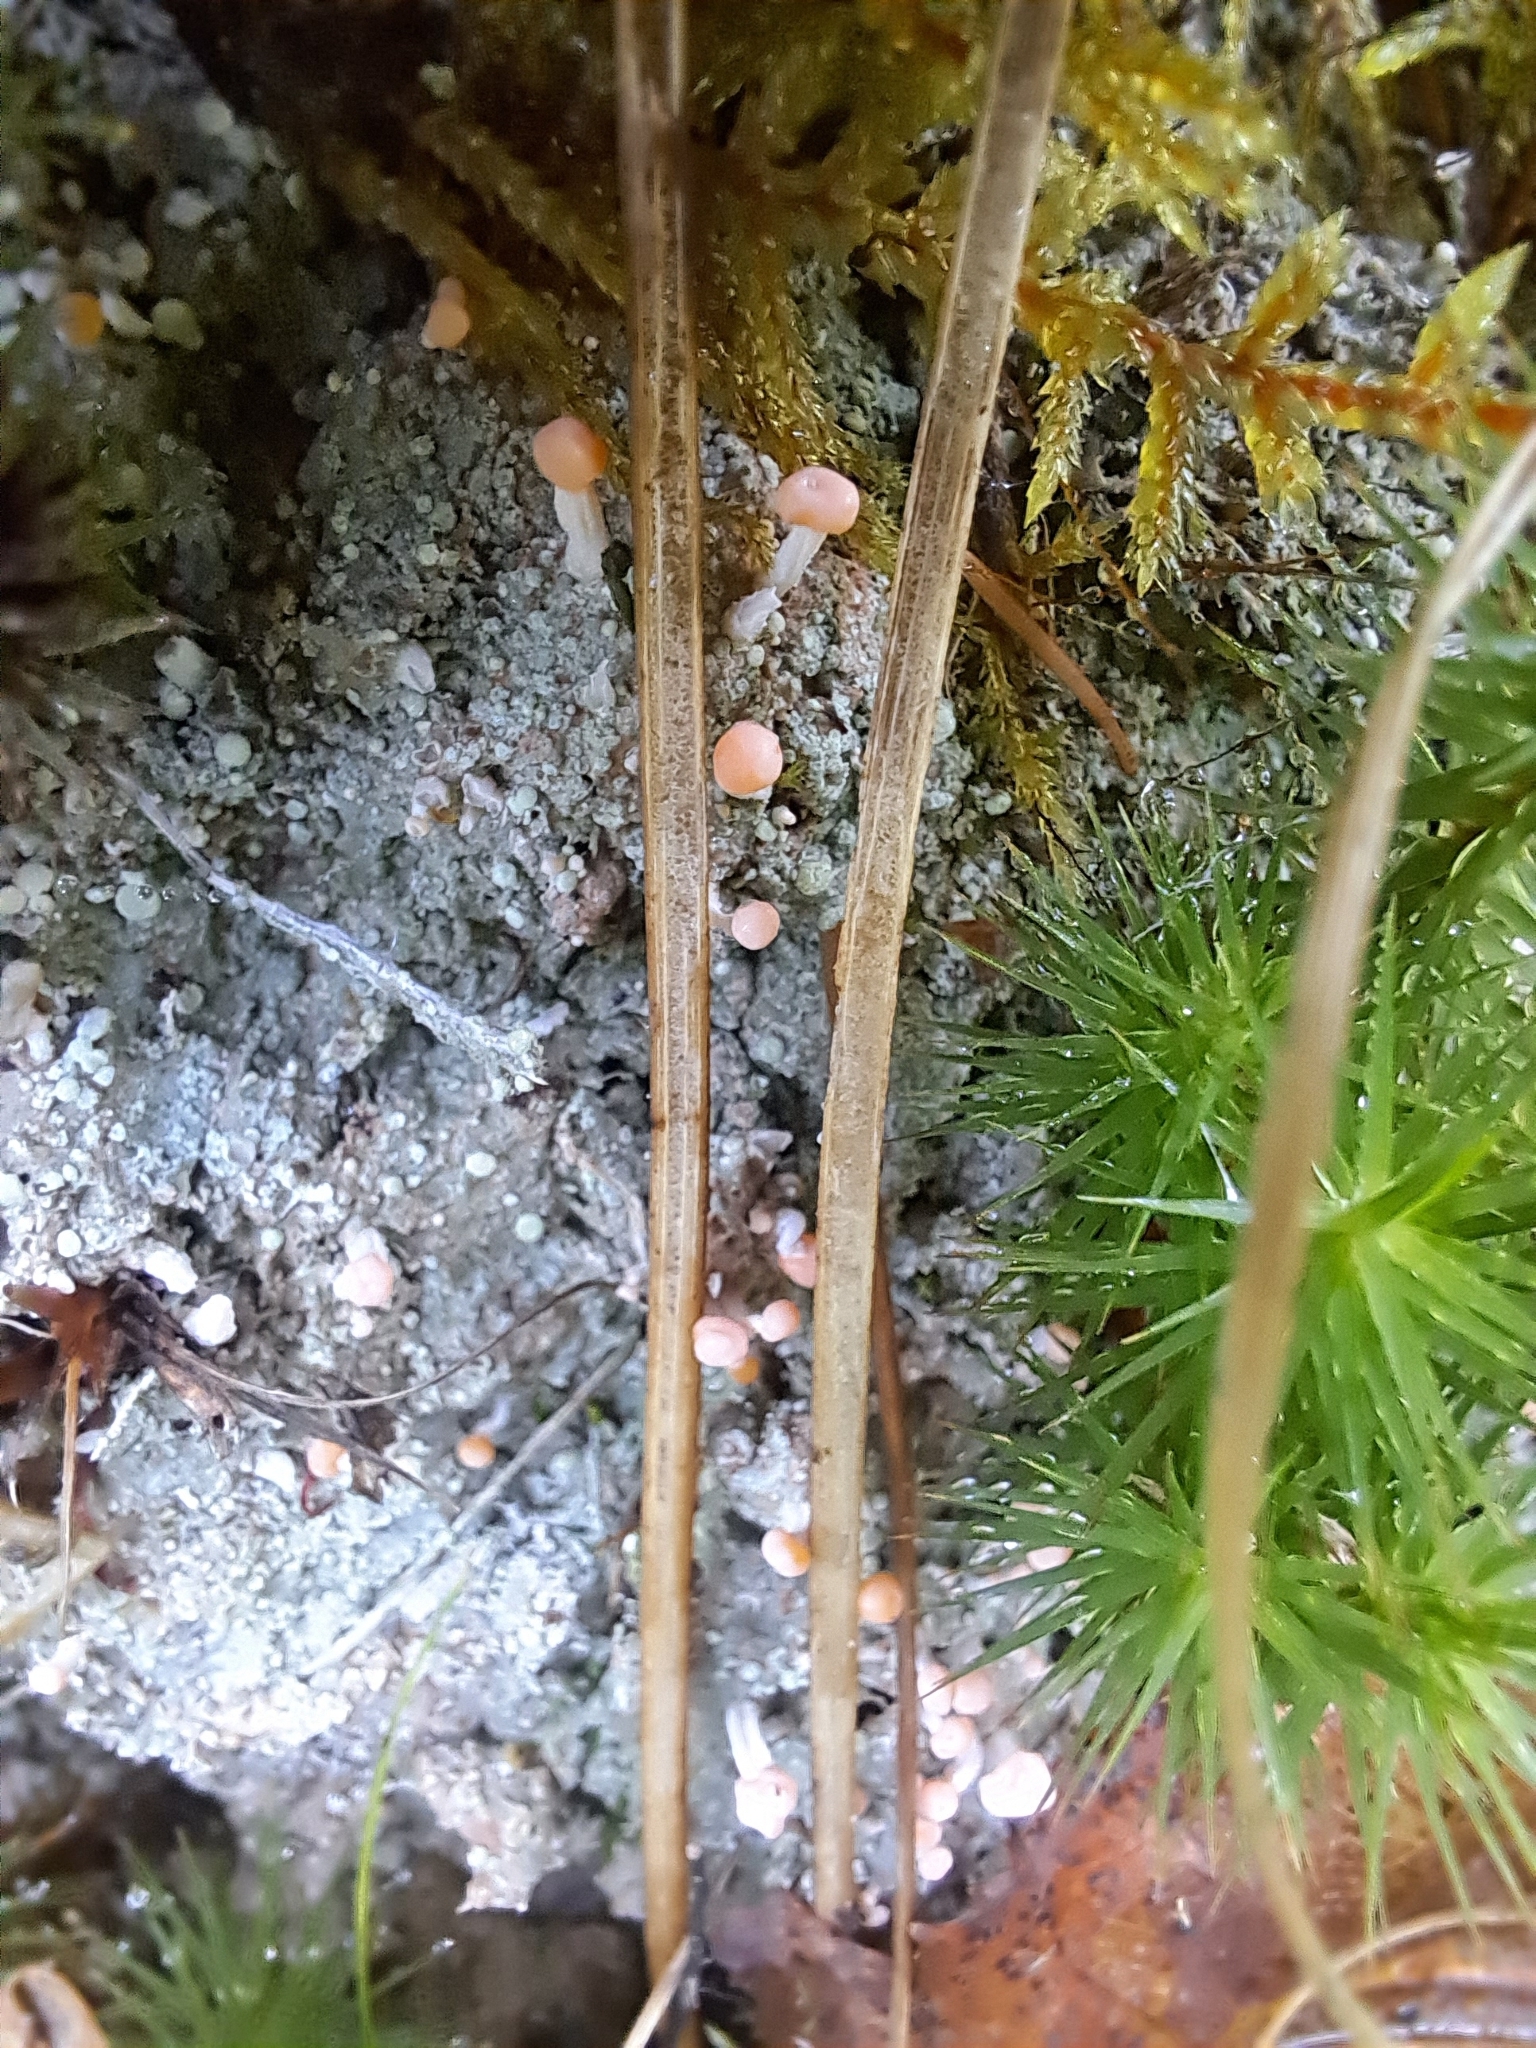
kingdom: Fungi
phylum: Ascomycota
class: Lecanoromycetes
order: Pertusariales
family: Icmadophilaceae
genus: Dibaeis
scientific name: Dibaeis baeomyces
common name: Pink earth lichen
